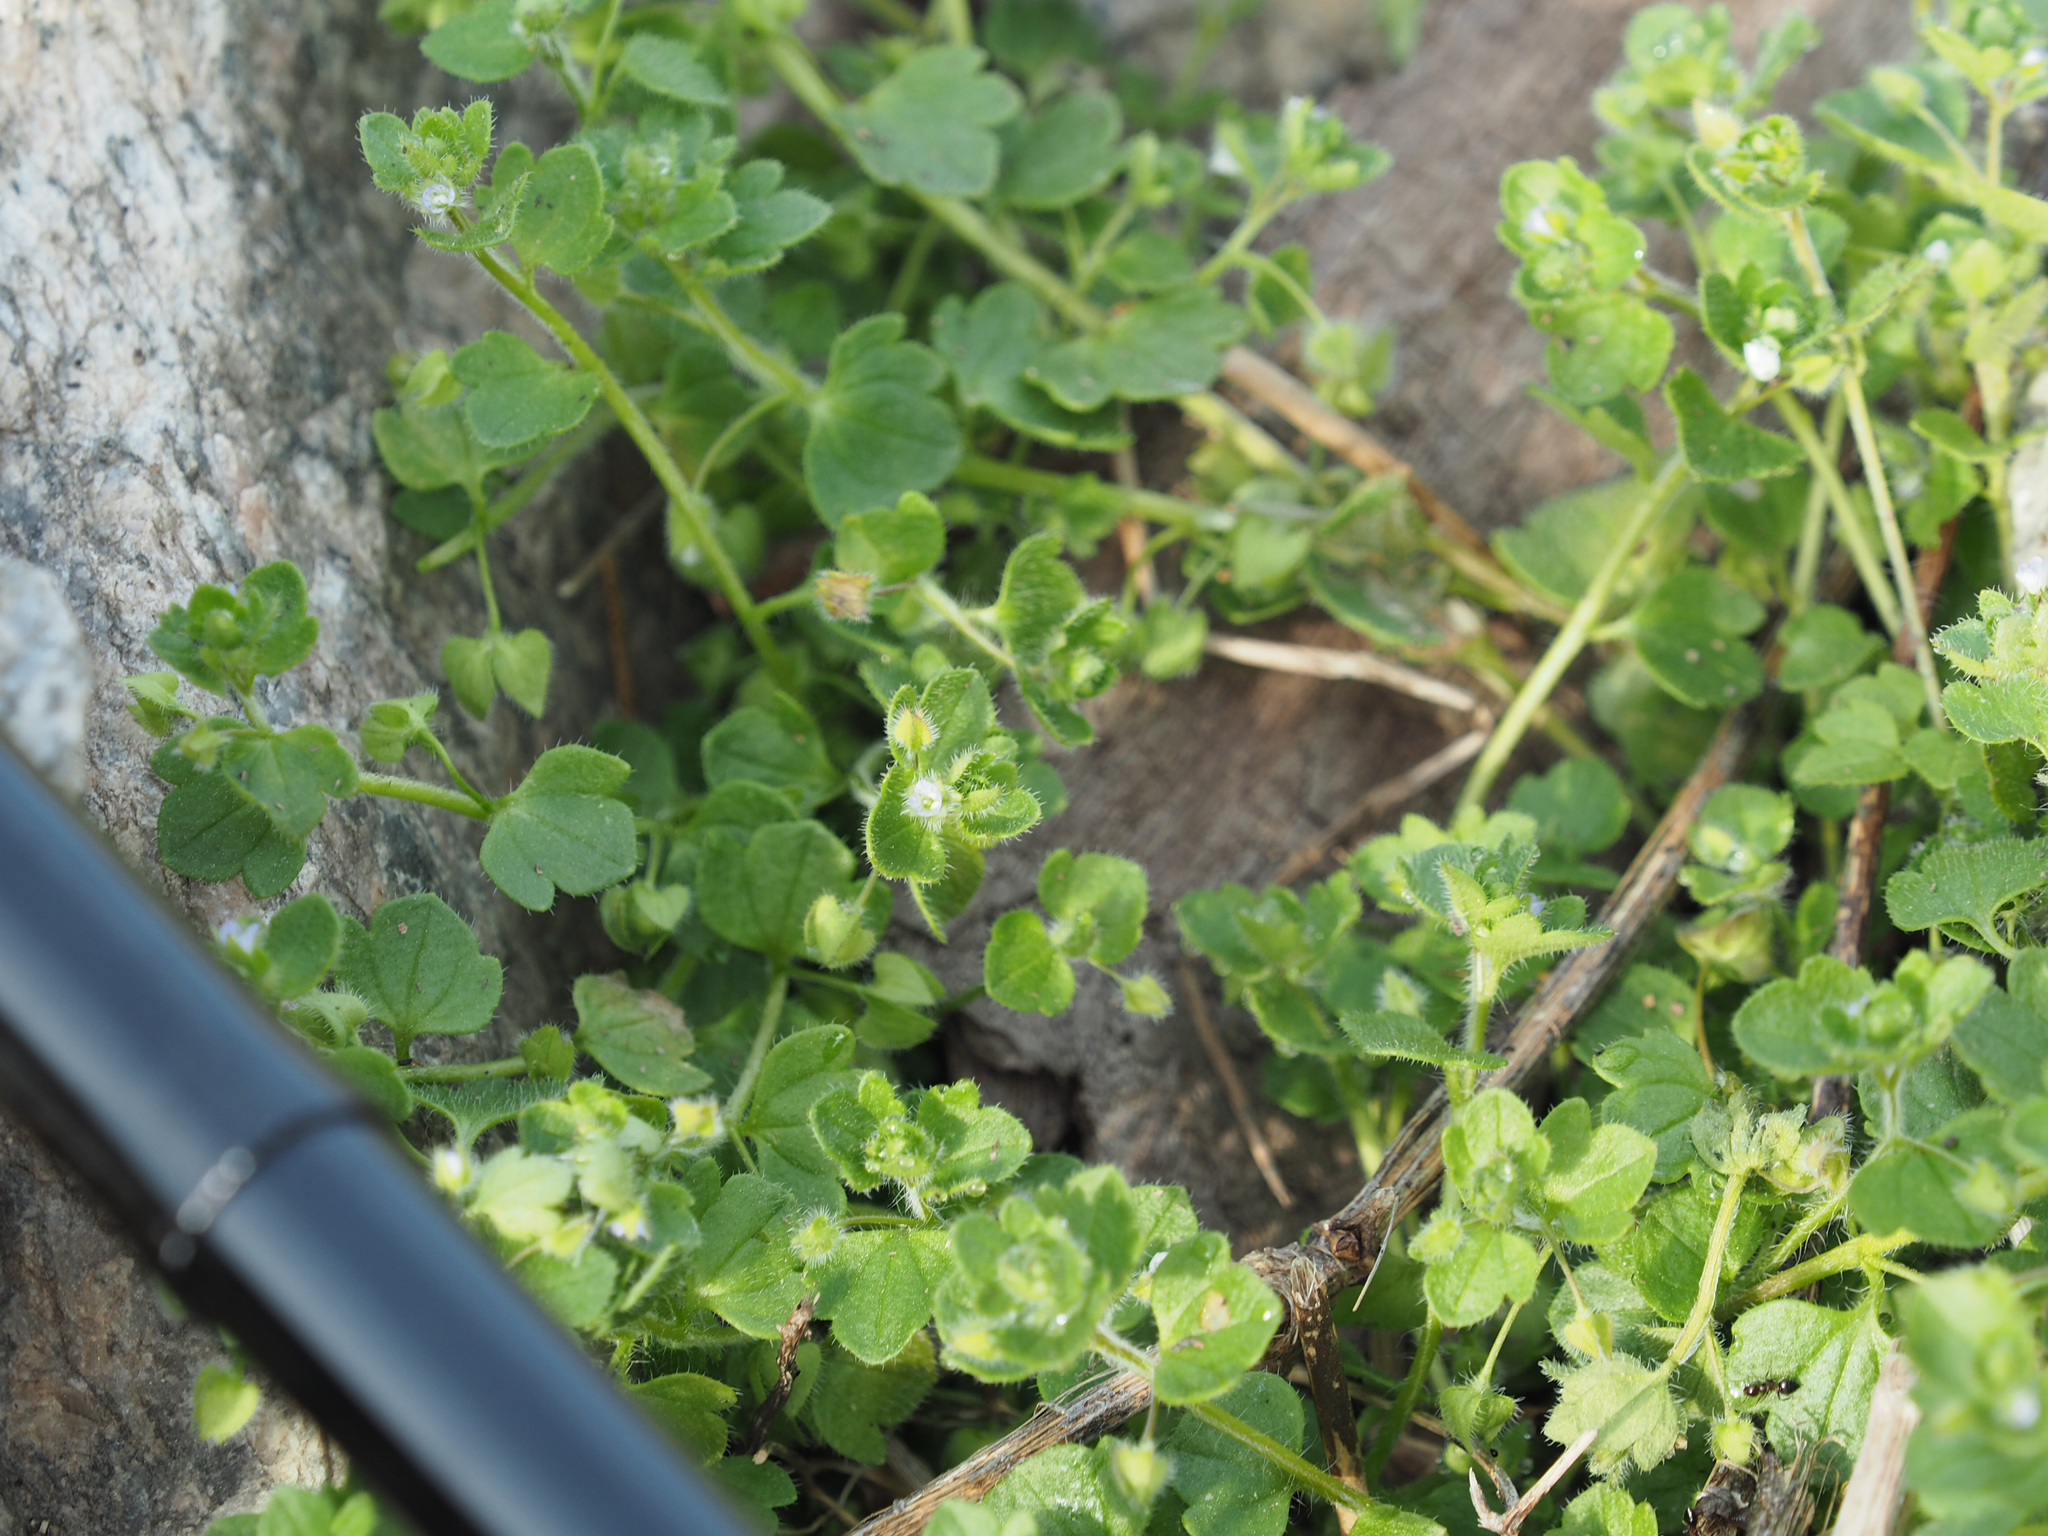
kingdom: Plantae
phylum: Tracheophyta
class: Magnoliopsida
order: Lamiales
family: Plantaginaceae
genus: Veronica
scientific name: Veronica sublobata
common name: False ivy-leaved speedwell
